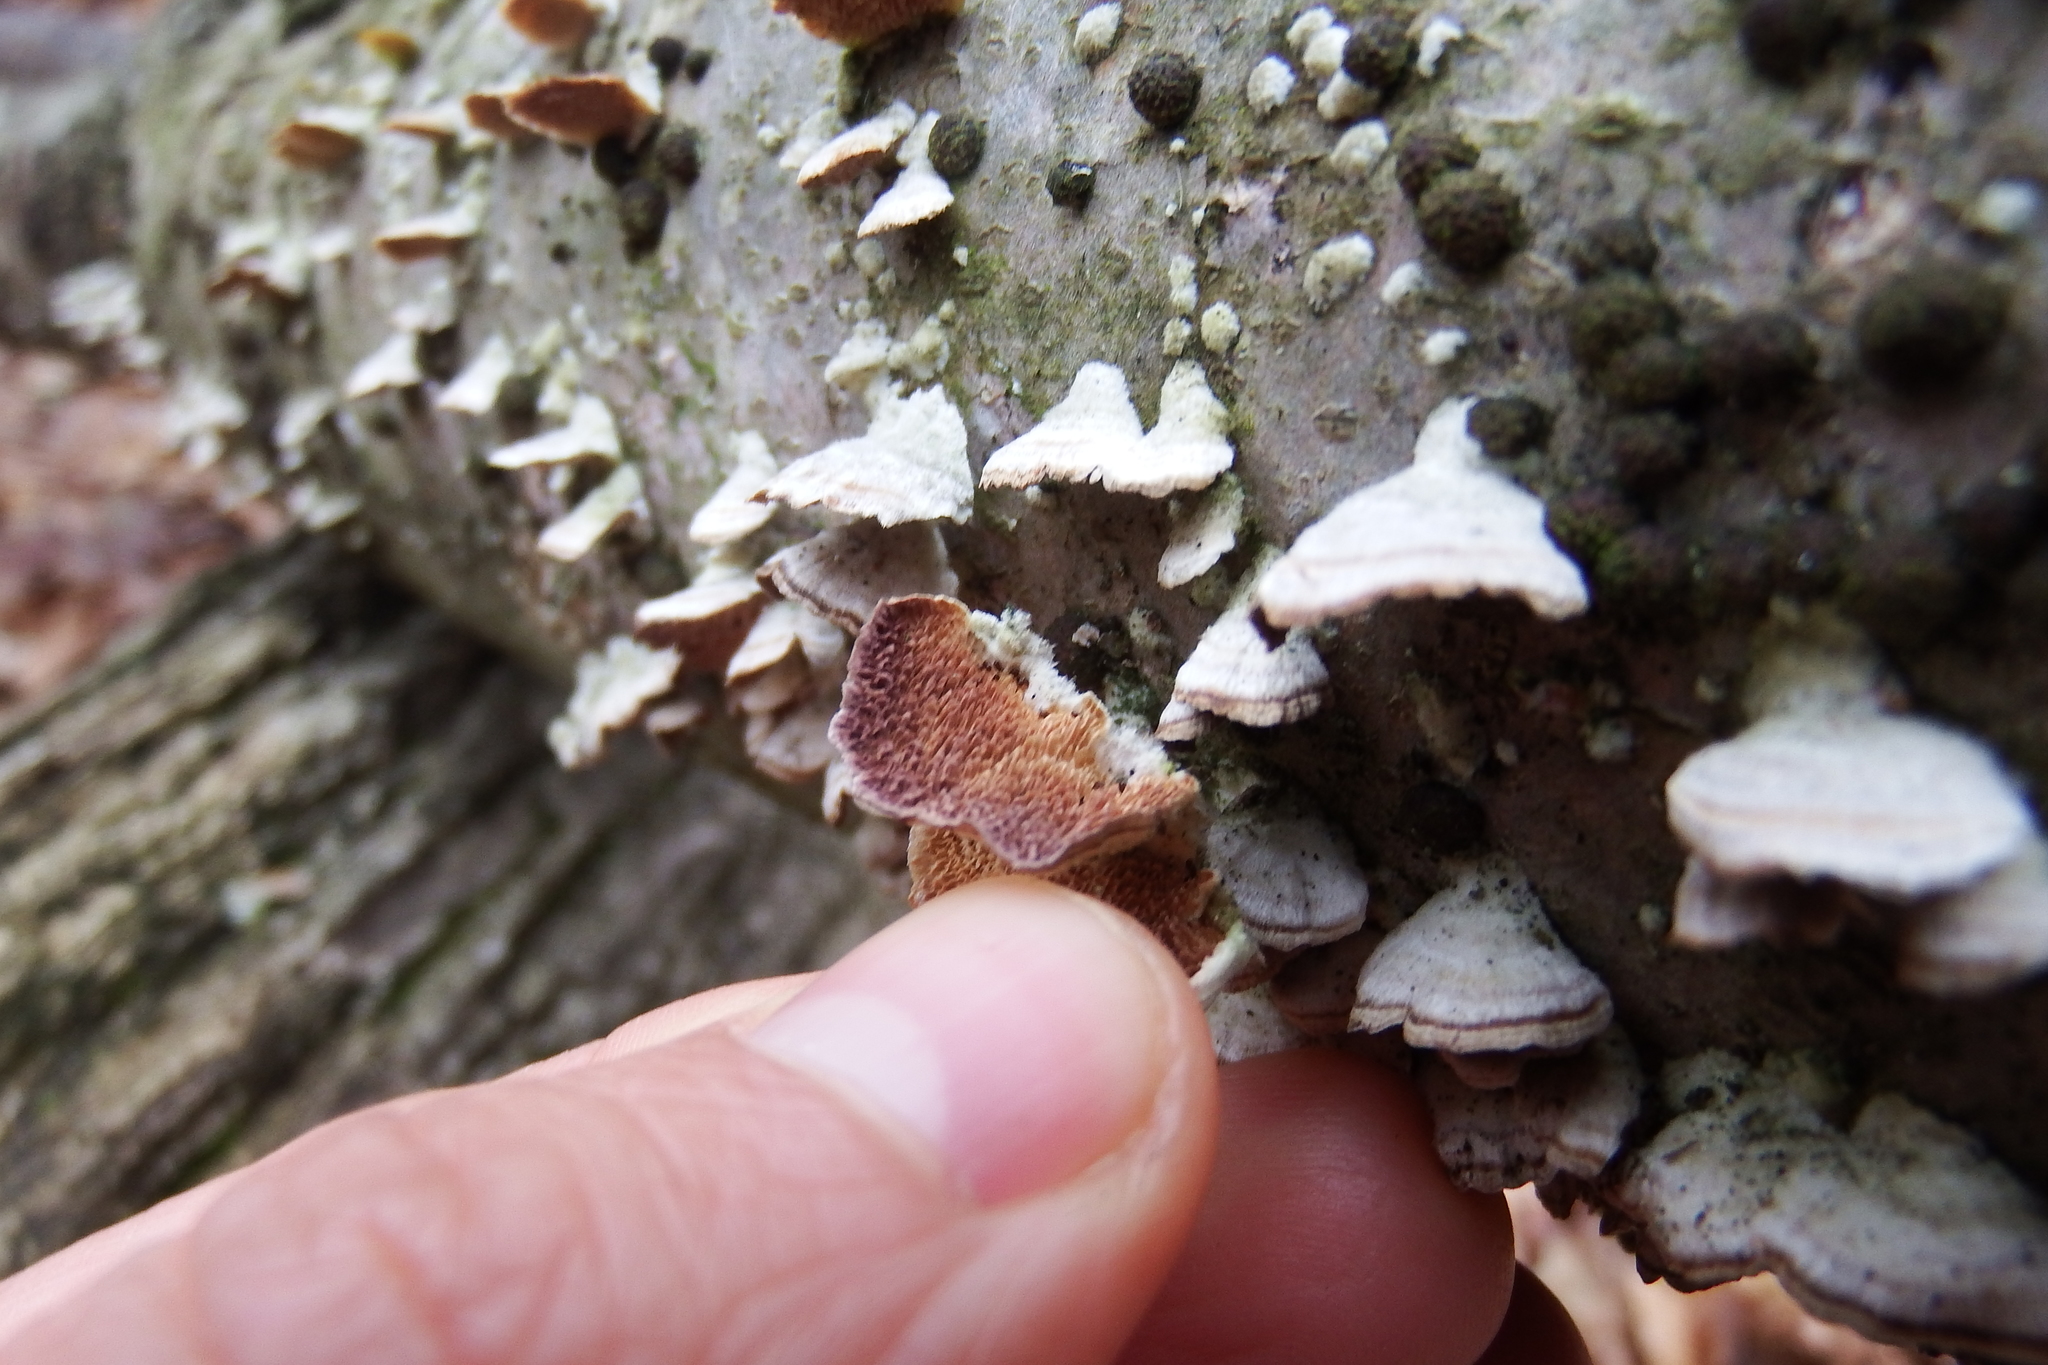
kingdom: Fungi
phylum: Basidiomycota
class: Agaricomycetes
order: Hymenochaetales
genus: Trichaptum
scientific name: Trichaptum biforme
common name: Violet-toothed polypore
